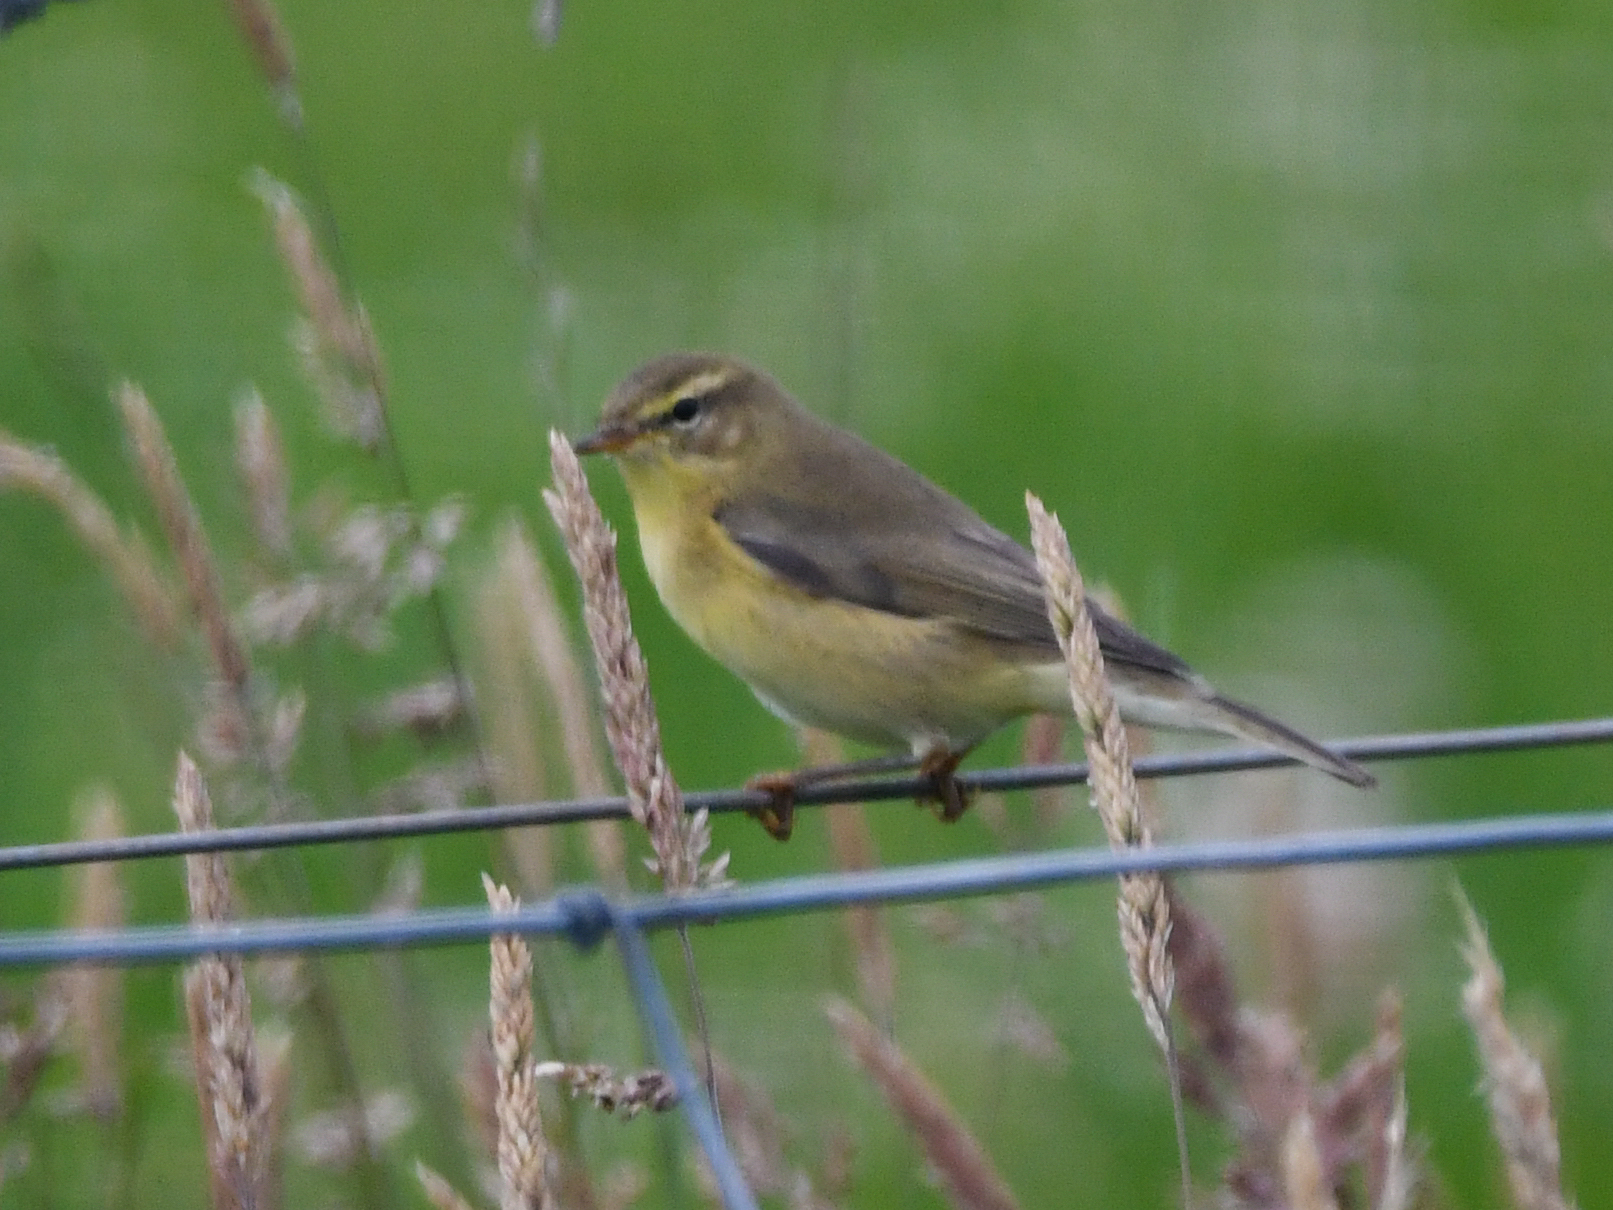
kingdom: Animalia
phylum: Chordata
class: Aves
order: Passeriformes
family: Phylloscopidae
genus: Phylloscopus
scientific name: Phylloscopus trochilus
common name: Willow warbler
